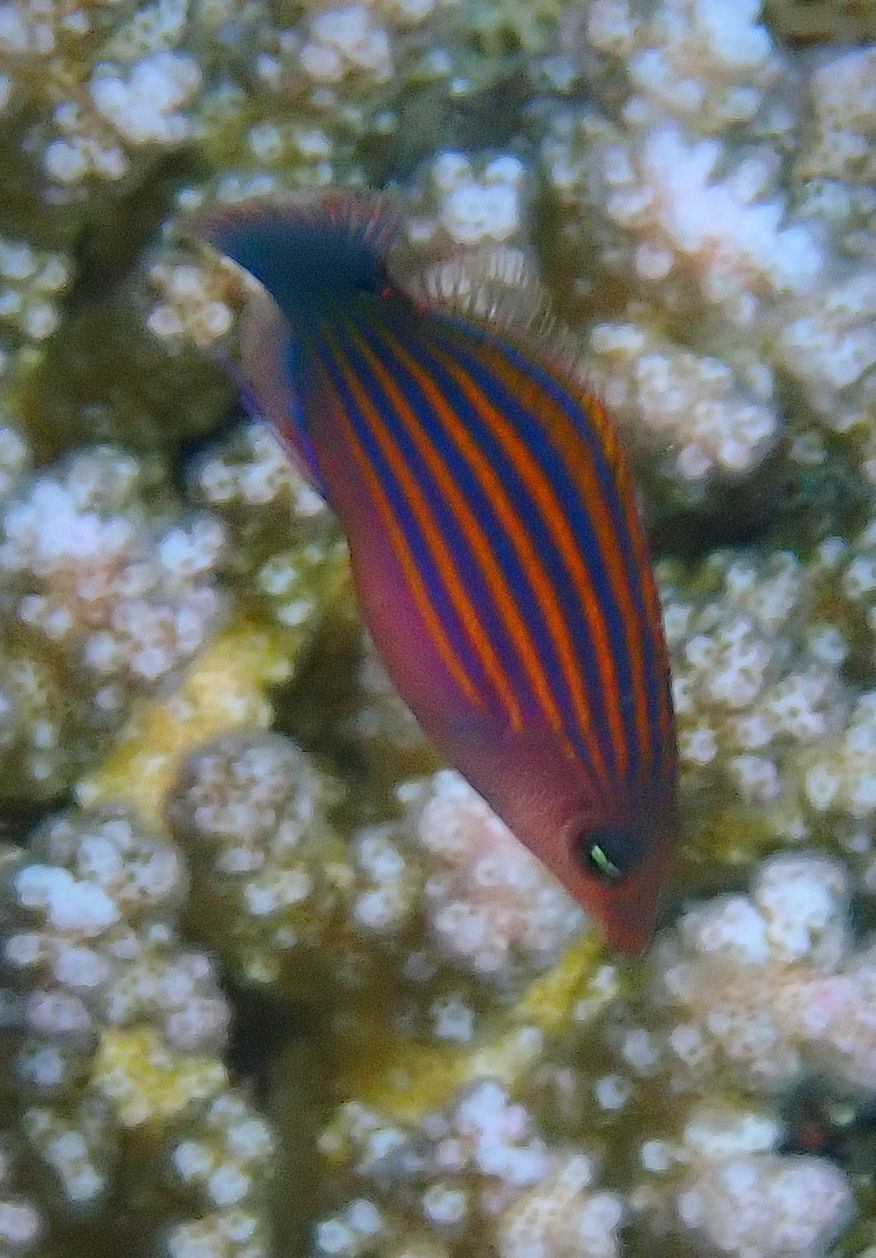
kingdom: Animalia
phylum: Chordata
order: Perciformes
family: Labridae
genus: Pseudocheilinus
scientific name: Pseudocheilinus hexataenia
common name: Sixline wrasse
